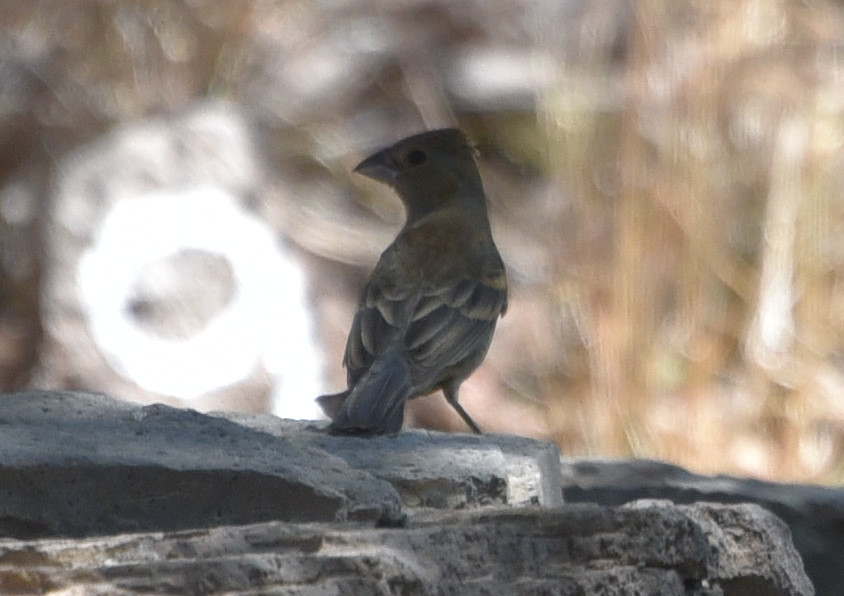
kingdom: Animalia
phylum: Chordata
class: Aves
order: Passeriformes
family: Cardinalidae
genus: Passerina
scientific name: Passerina caerulea
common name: Blue grosbeak
